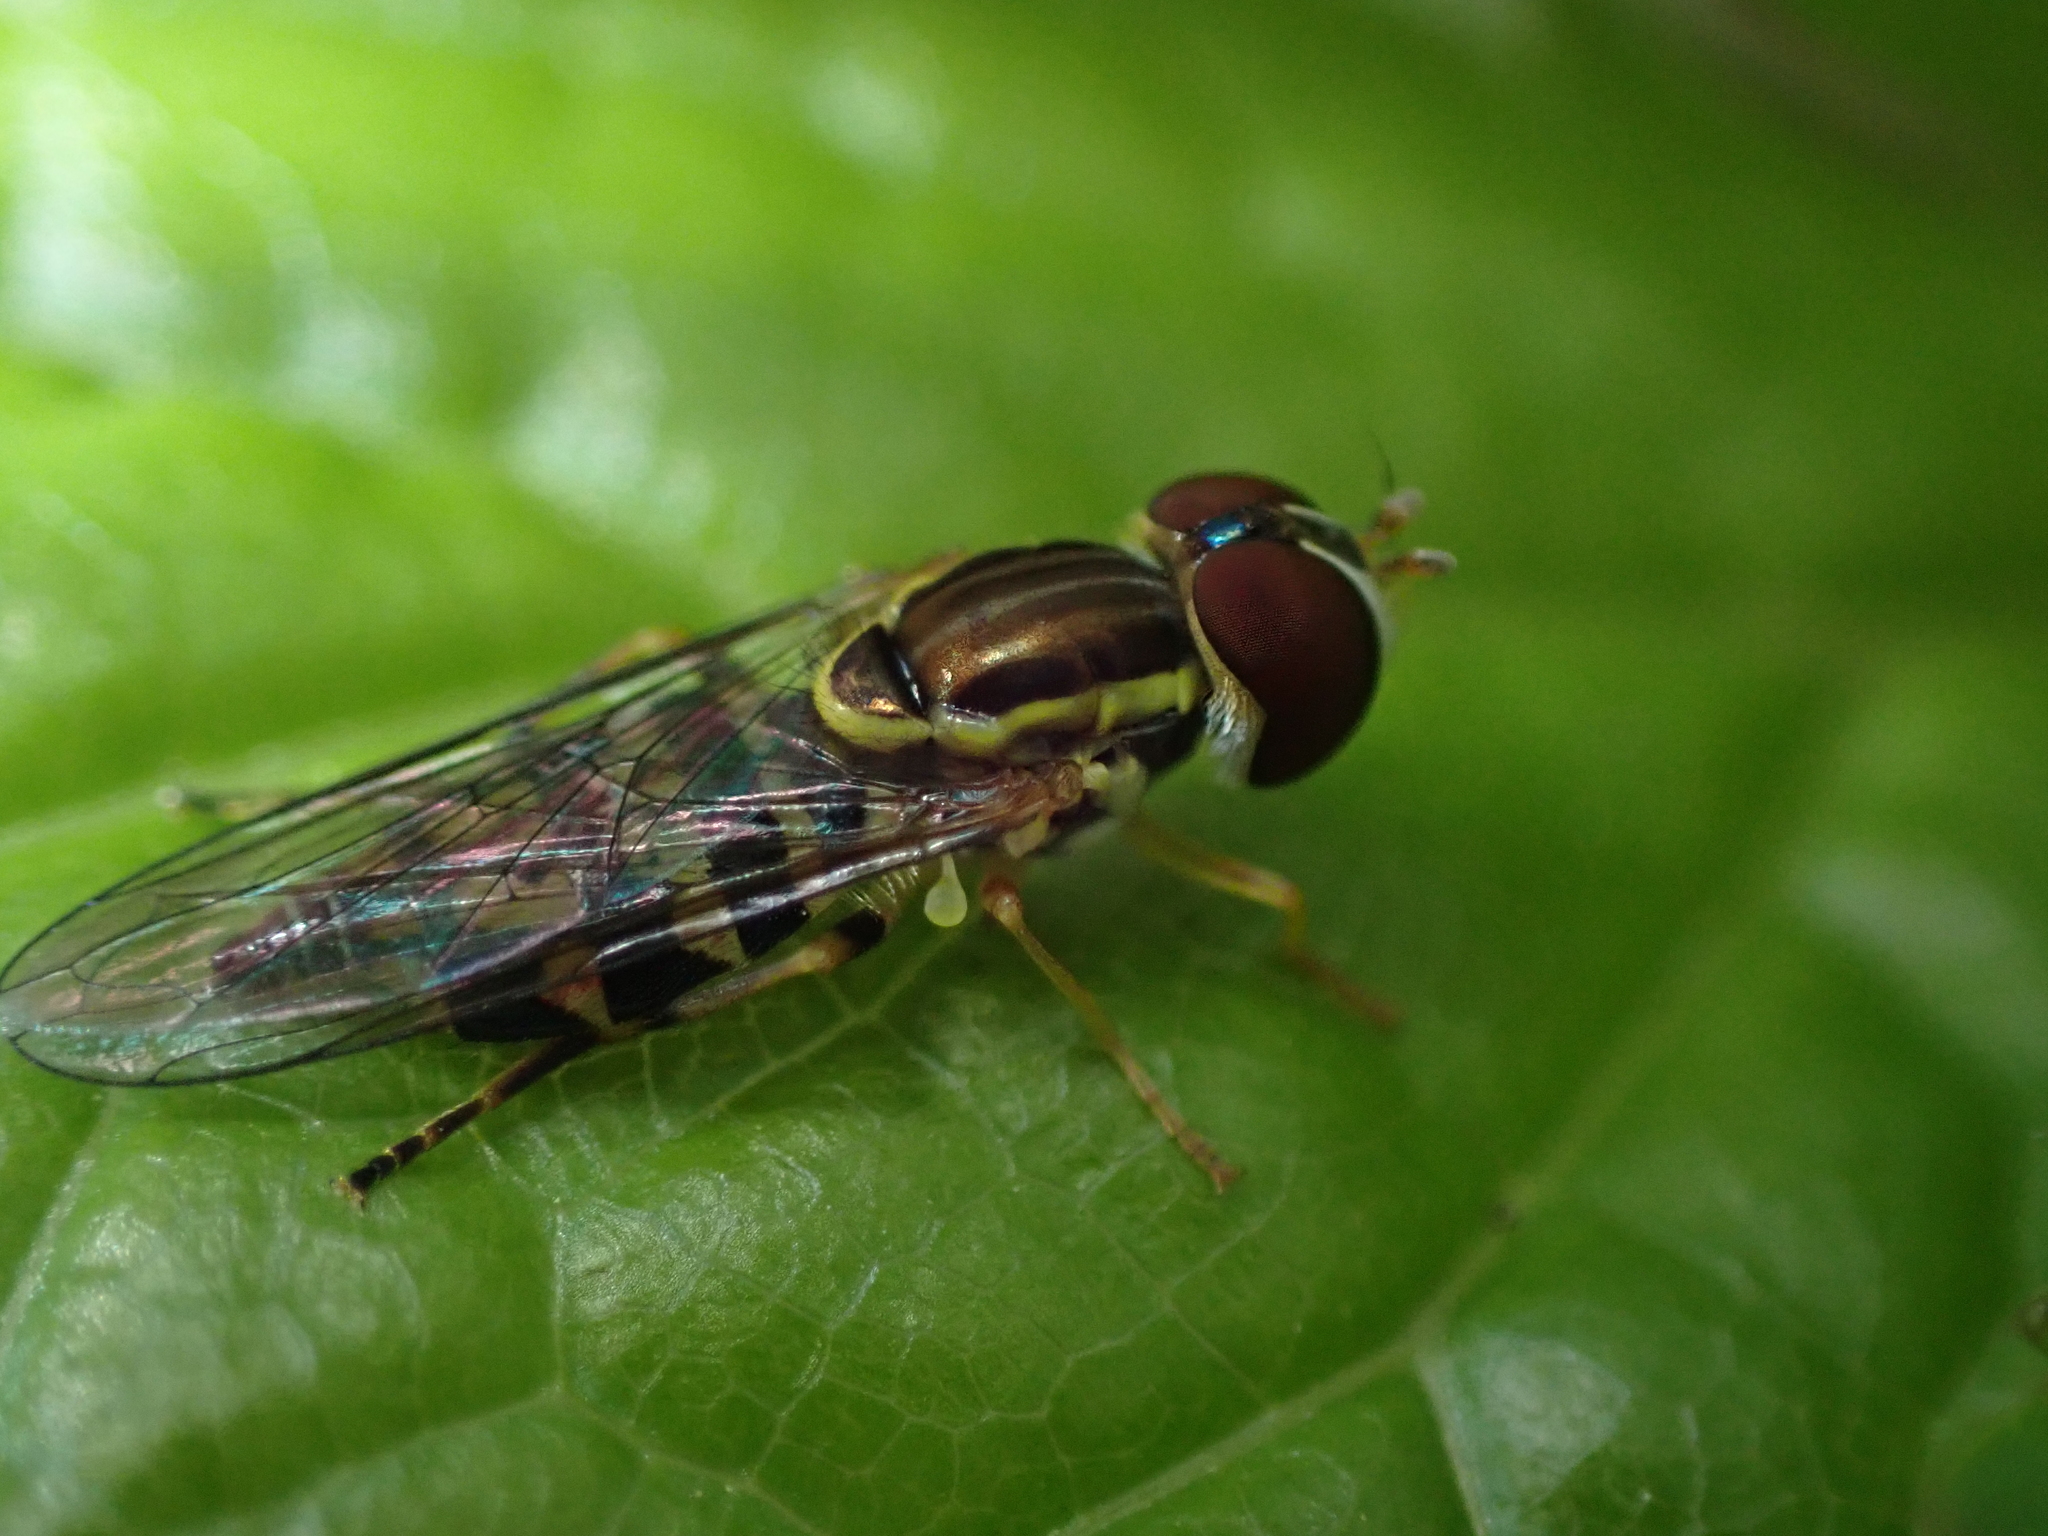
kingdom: Animalia
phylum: Arthropoda
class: Insecta
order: Diptera
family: Syrphidae
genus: Toxomerus
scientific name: Toxomerus geminatus
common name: Eastern calligrapher
